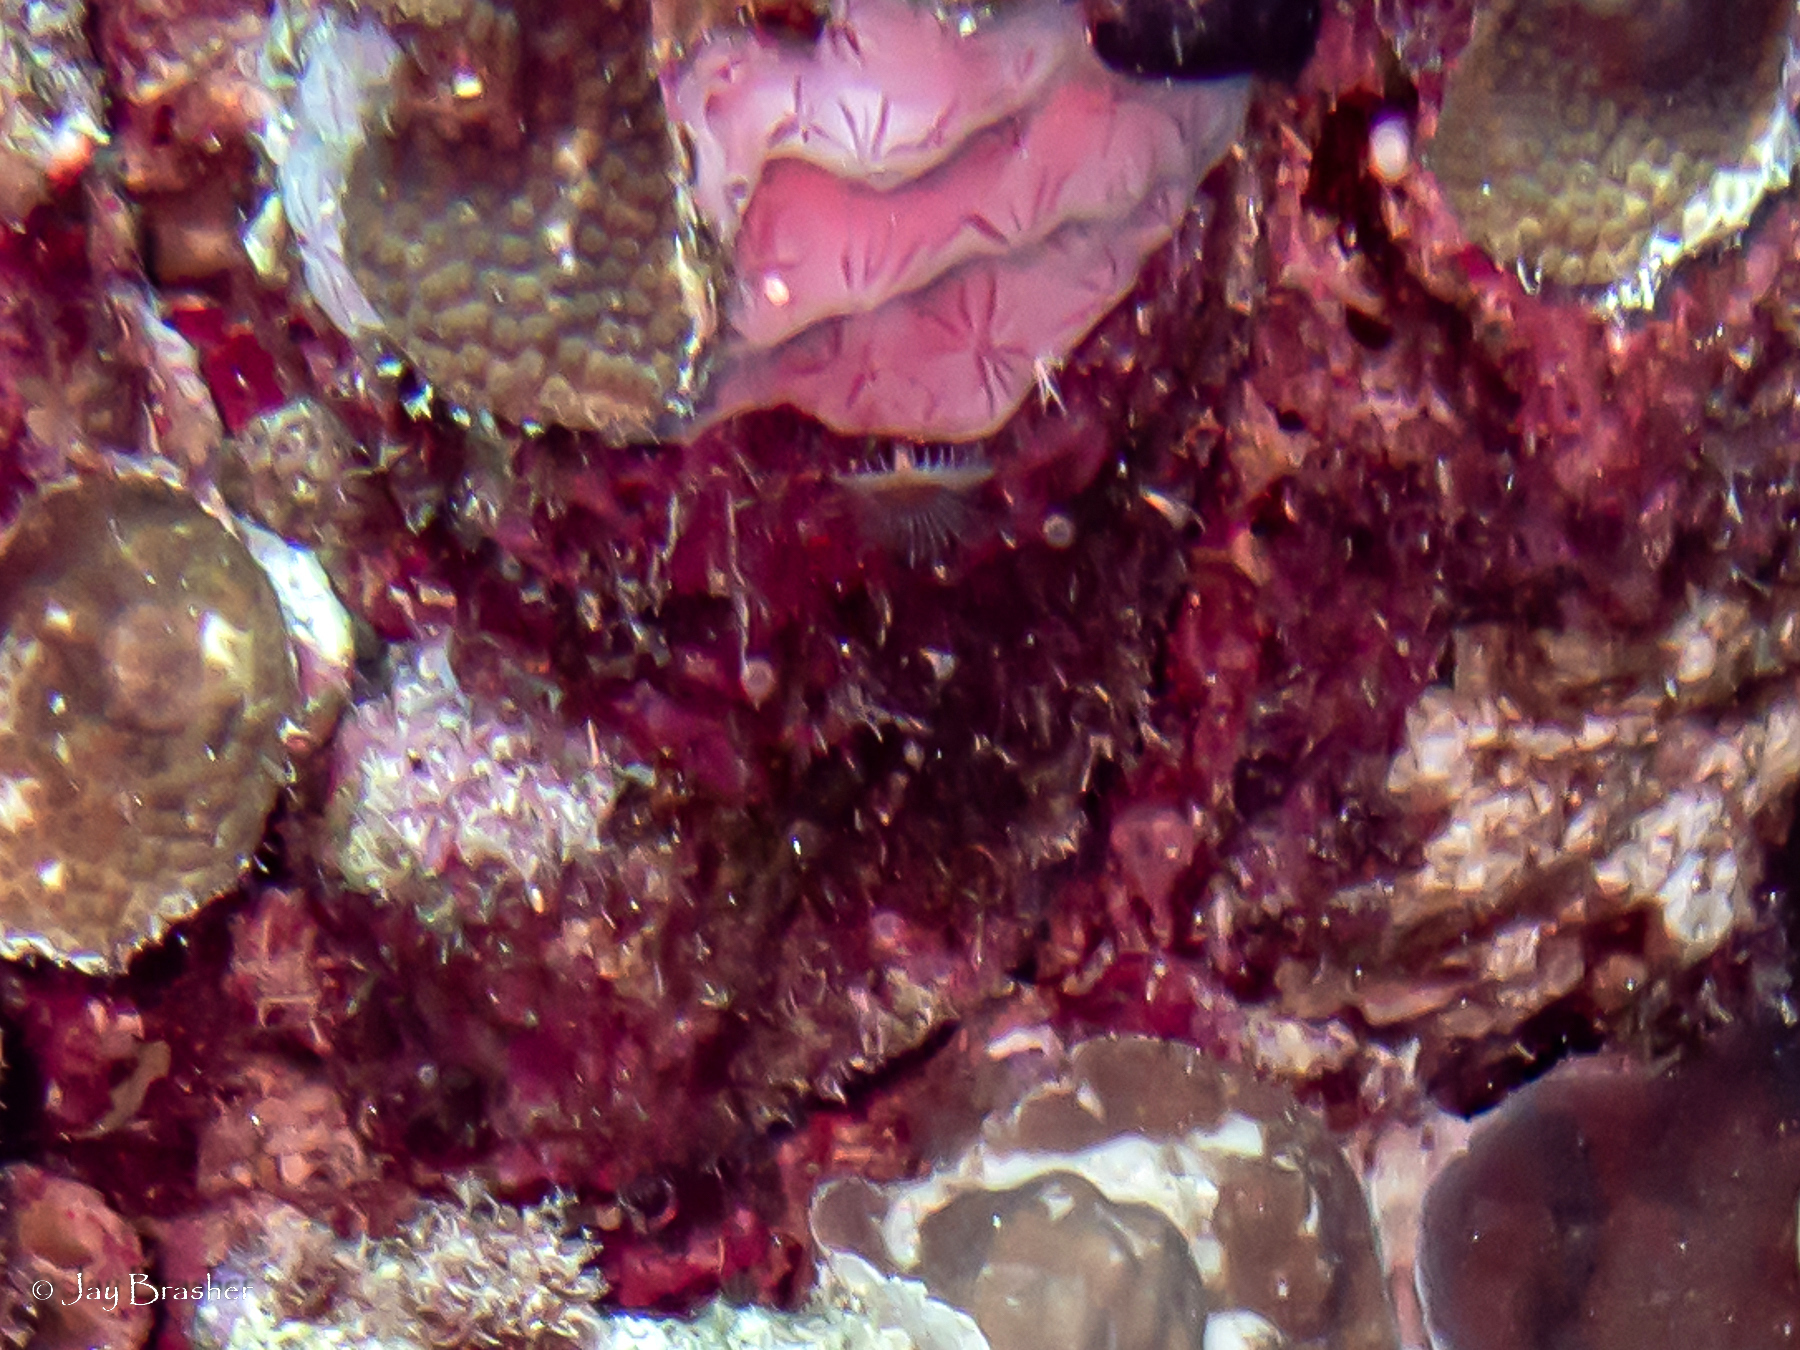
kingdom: Animalia
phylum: Porifera
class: Demospongiae
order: Chondrillida
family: Halisarcidae
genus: Halisarca
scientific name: Halisarca caerulea
